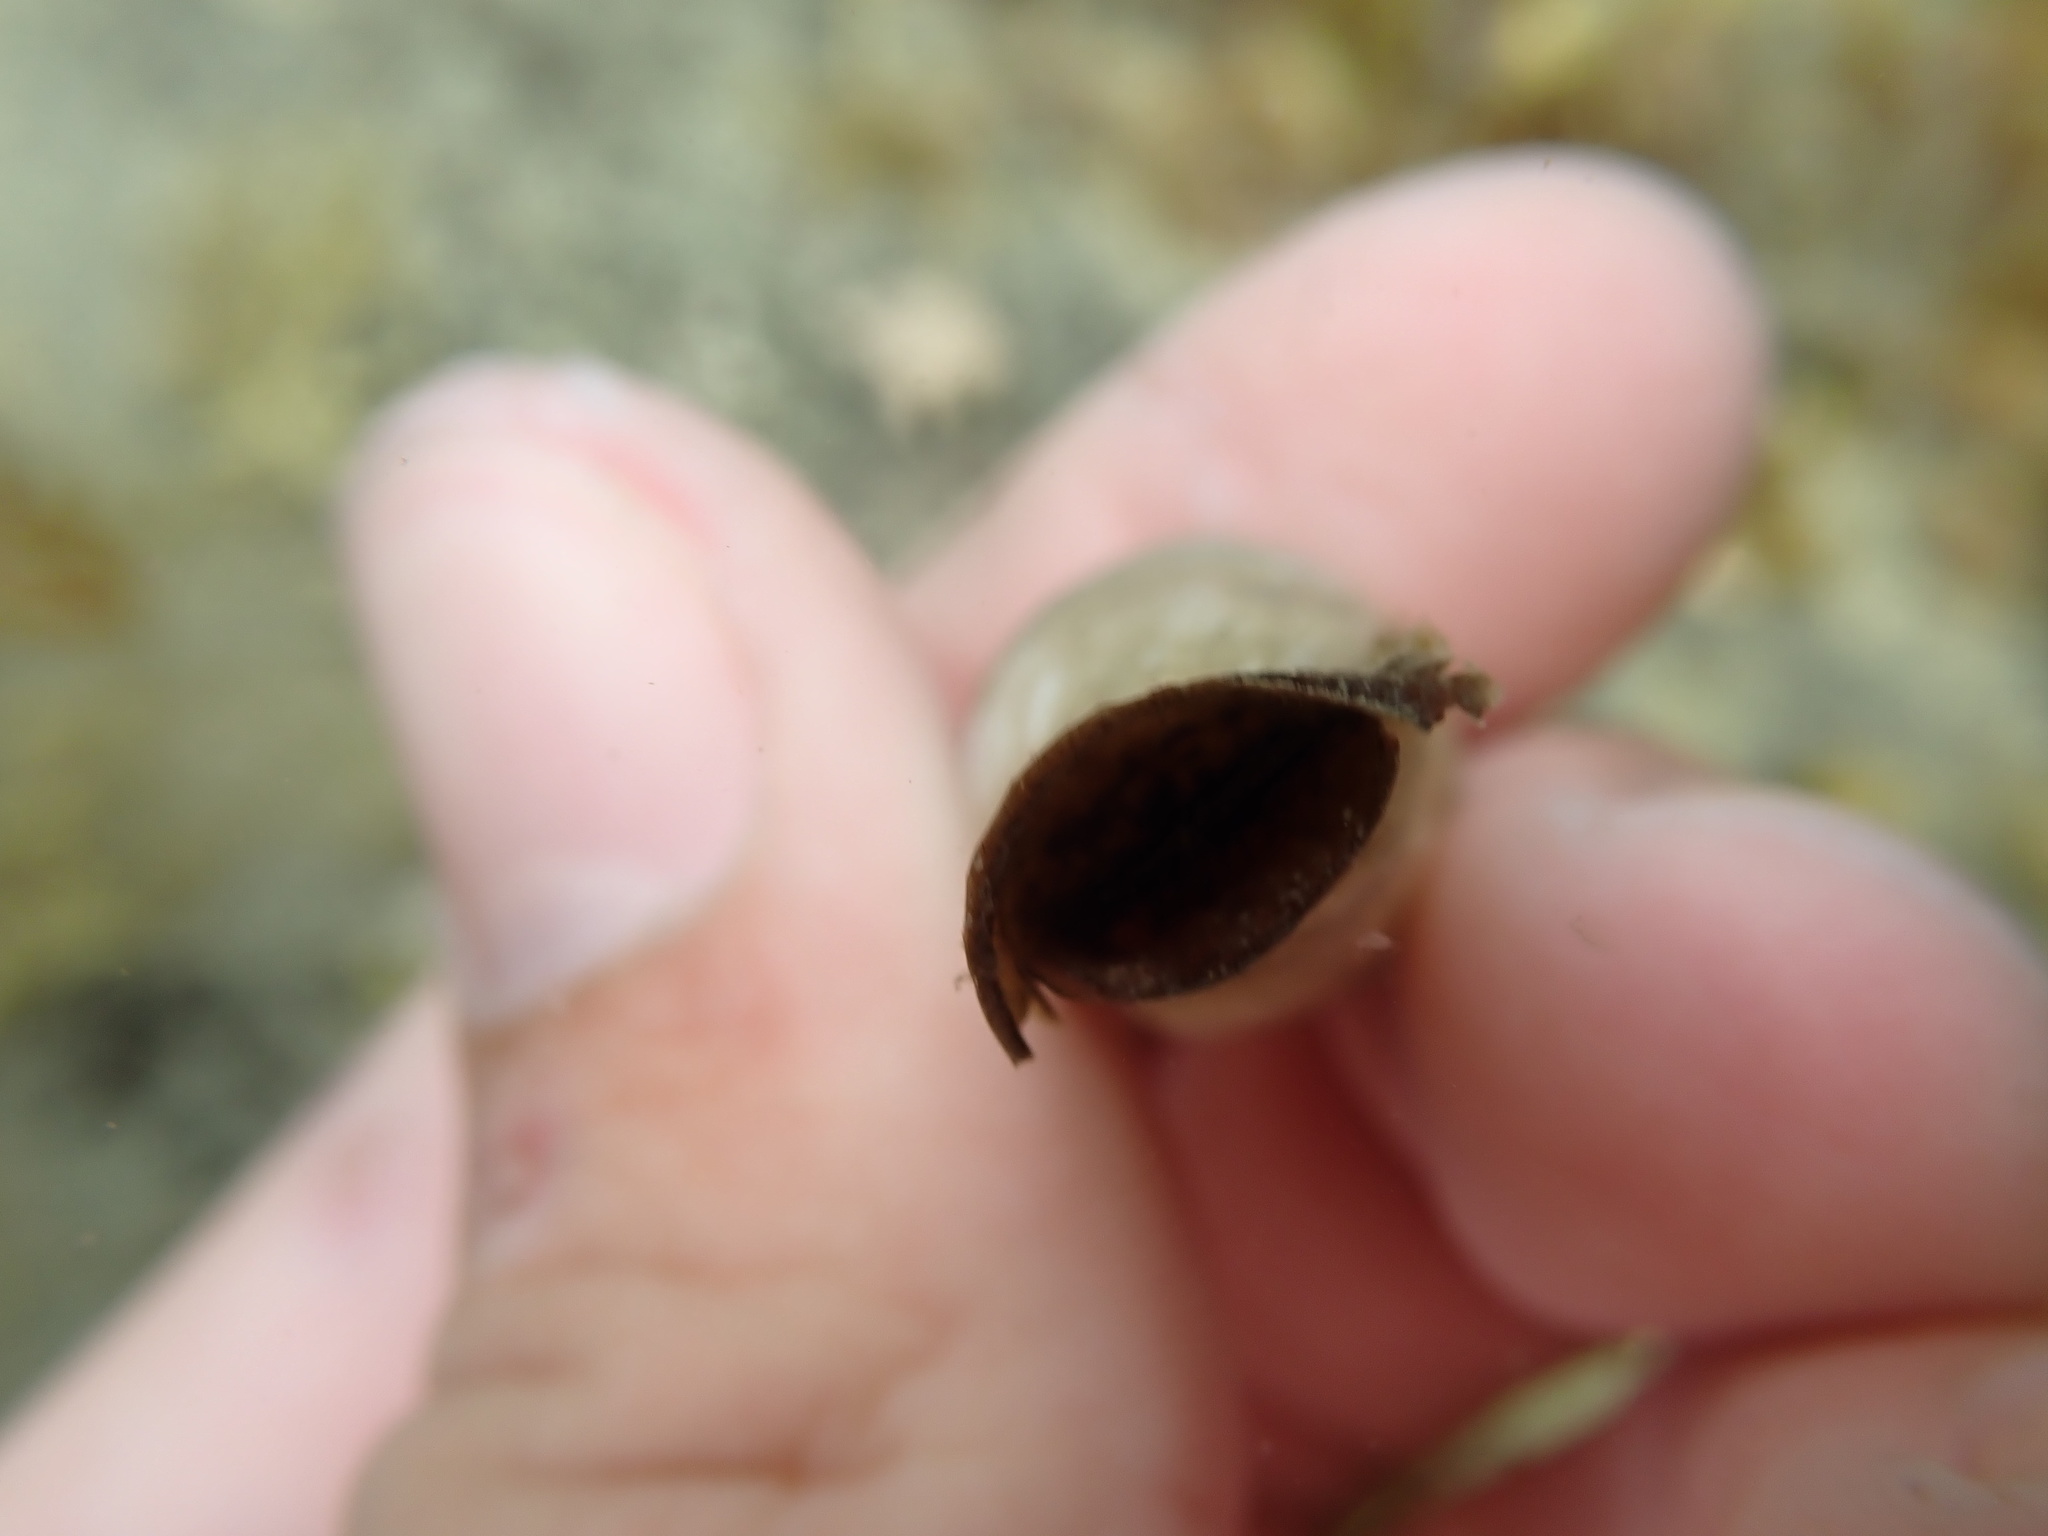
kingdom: Animalia
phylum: Mollusca
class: Bivalvia
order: Myida
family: Pholadidae
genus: Pholadidea
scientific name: Pholadidea suteri
